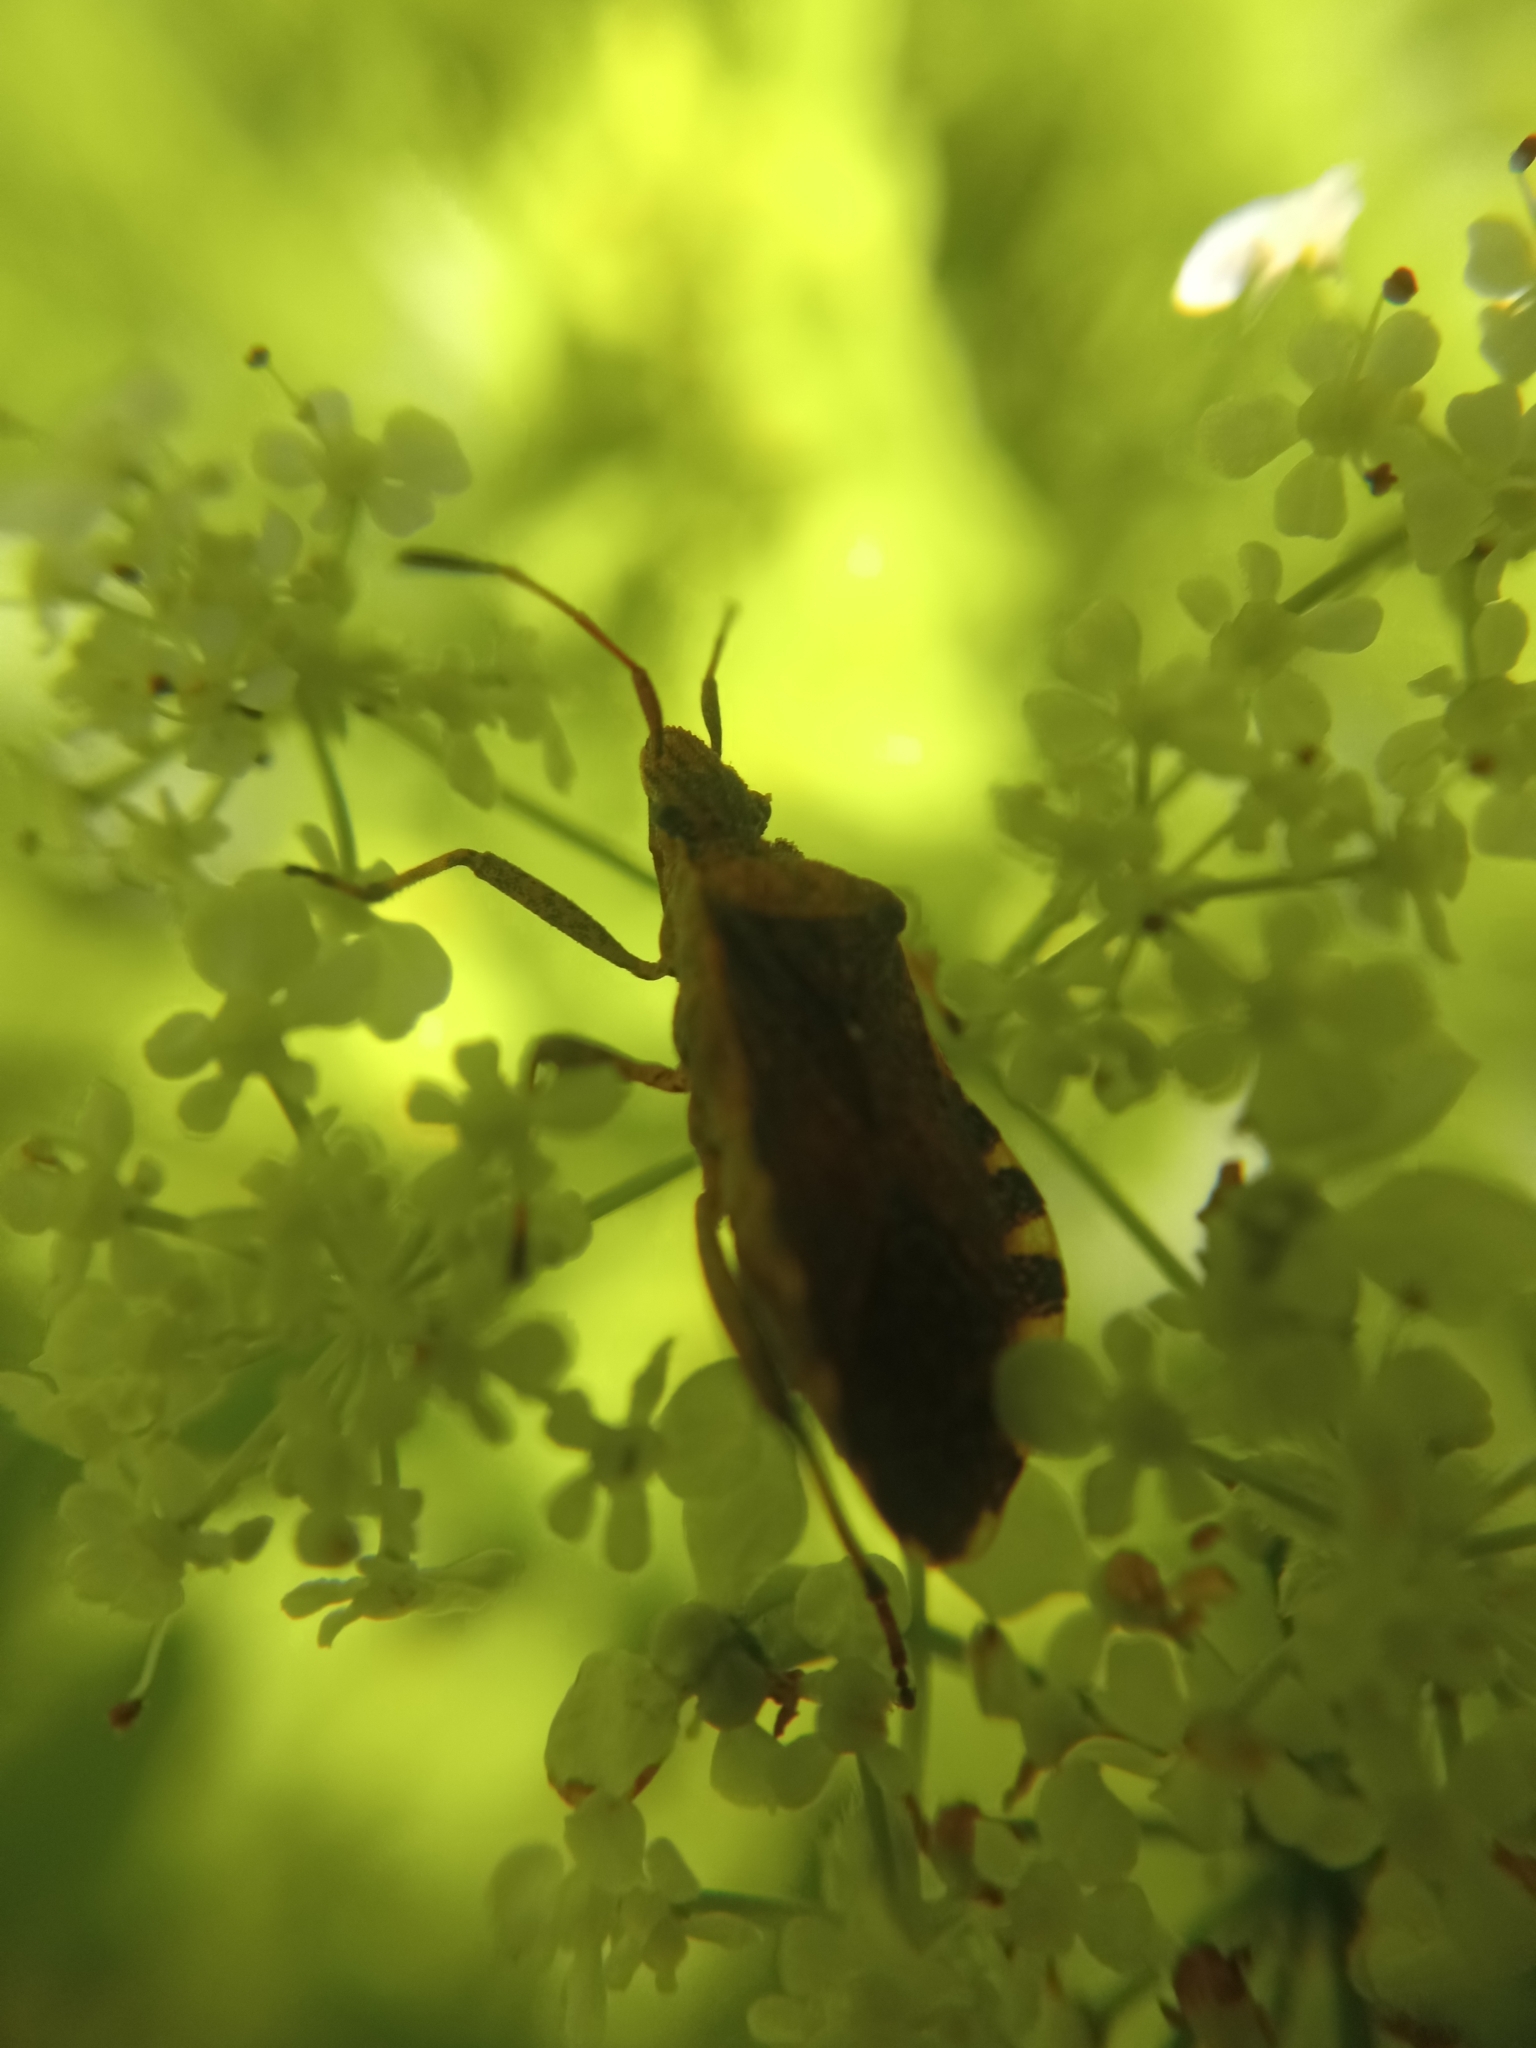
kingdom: Animalia
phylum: Arthropoda
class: Insecta
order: Hemiptera
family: Coreidae
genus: Ceraleptus
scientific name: Ceraleptus gracilicornis
